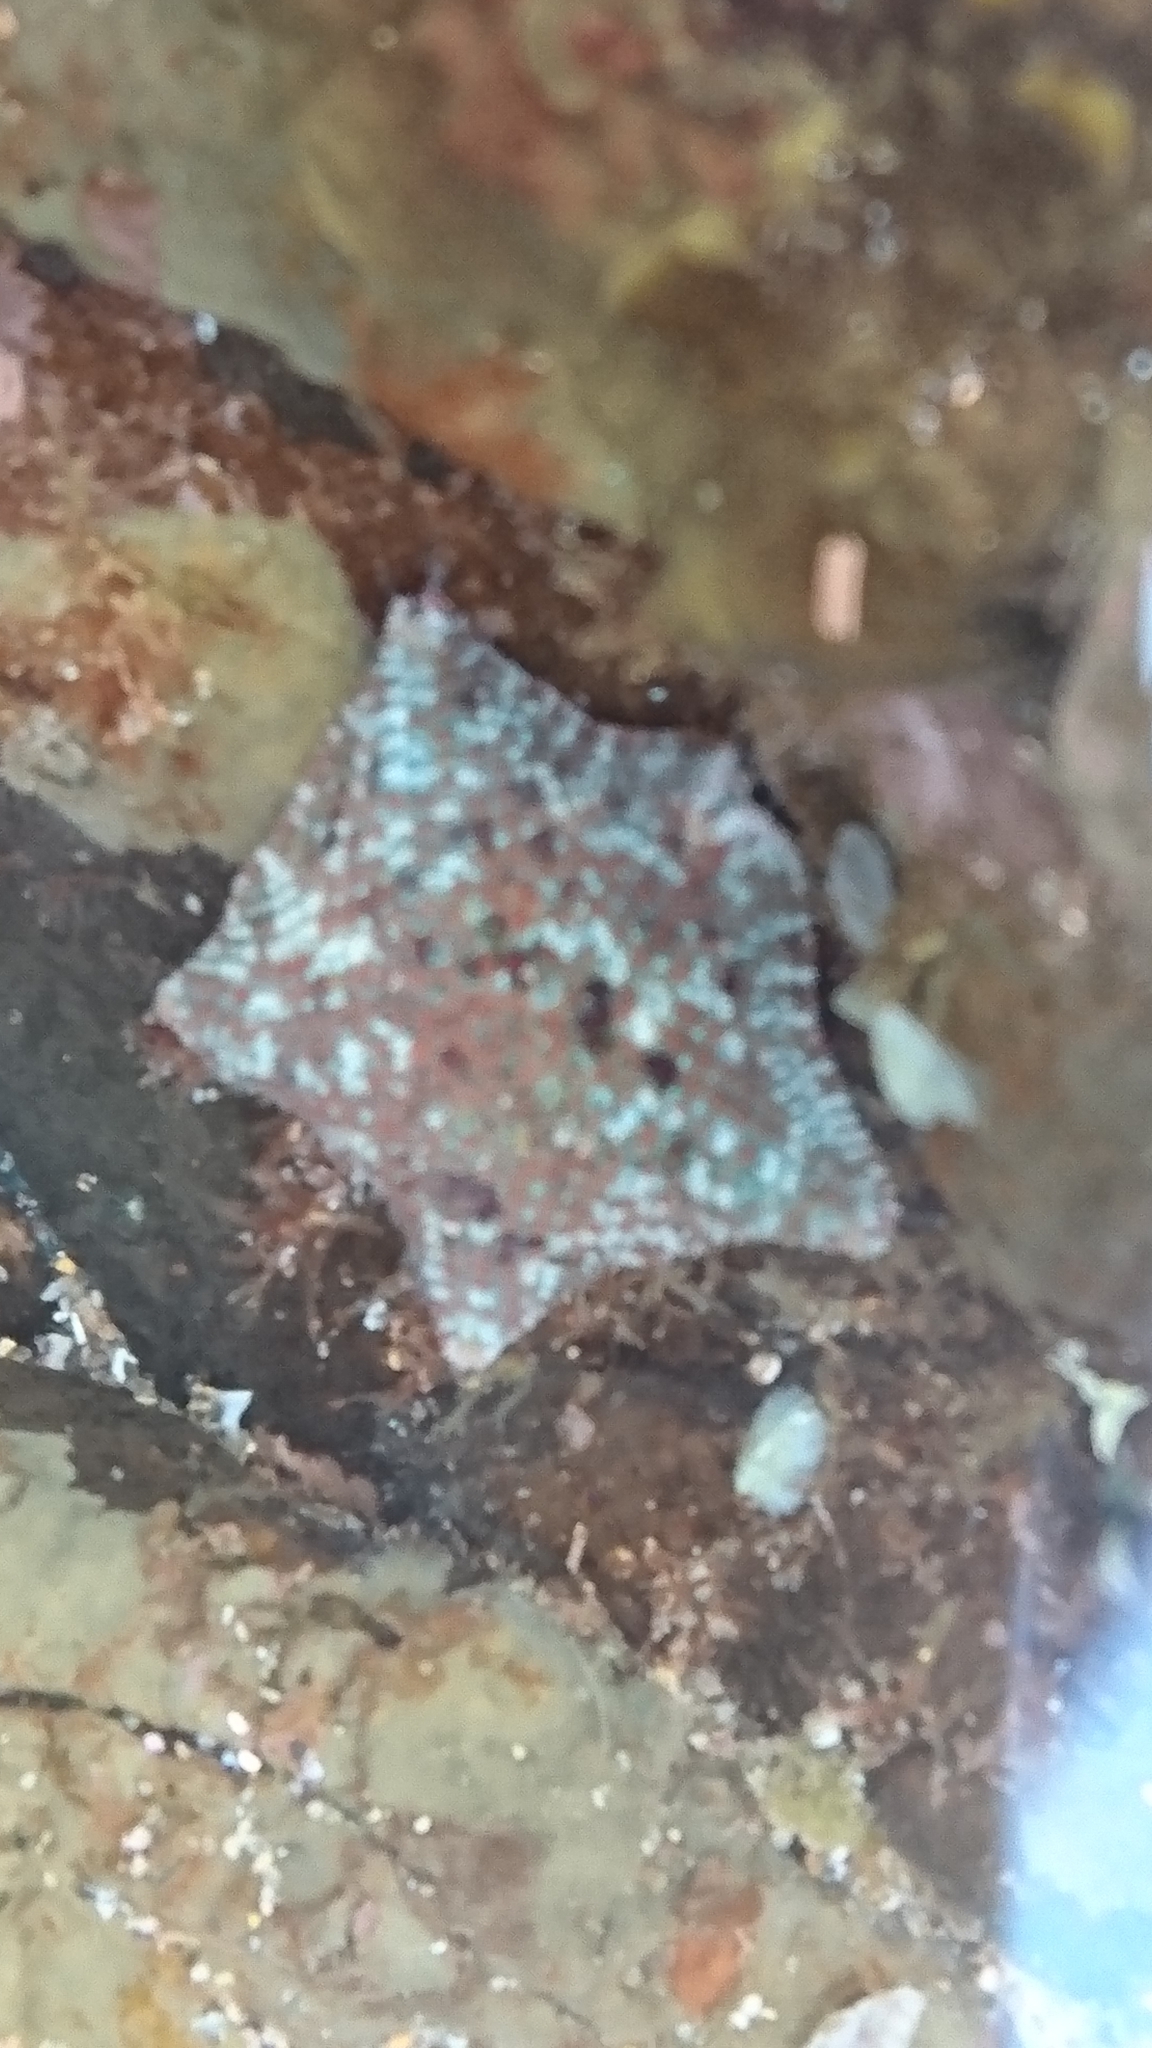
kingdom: Animalia
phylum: Echinodermata
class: Asteroidea
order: Valvatida
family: Asterinidae
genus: Parvulastra
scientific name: Parvulastra exigua
